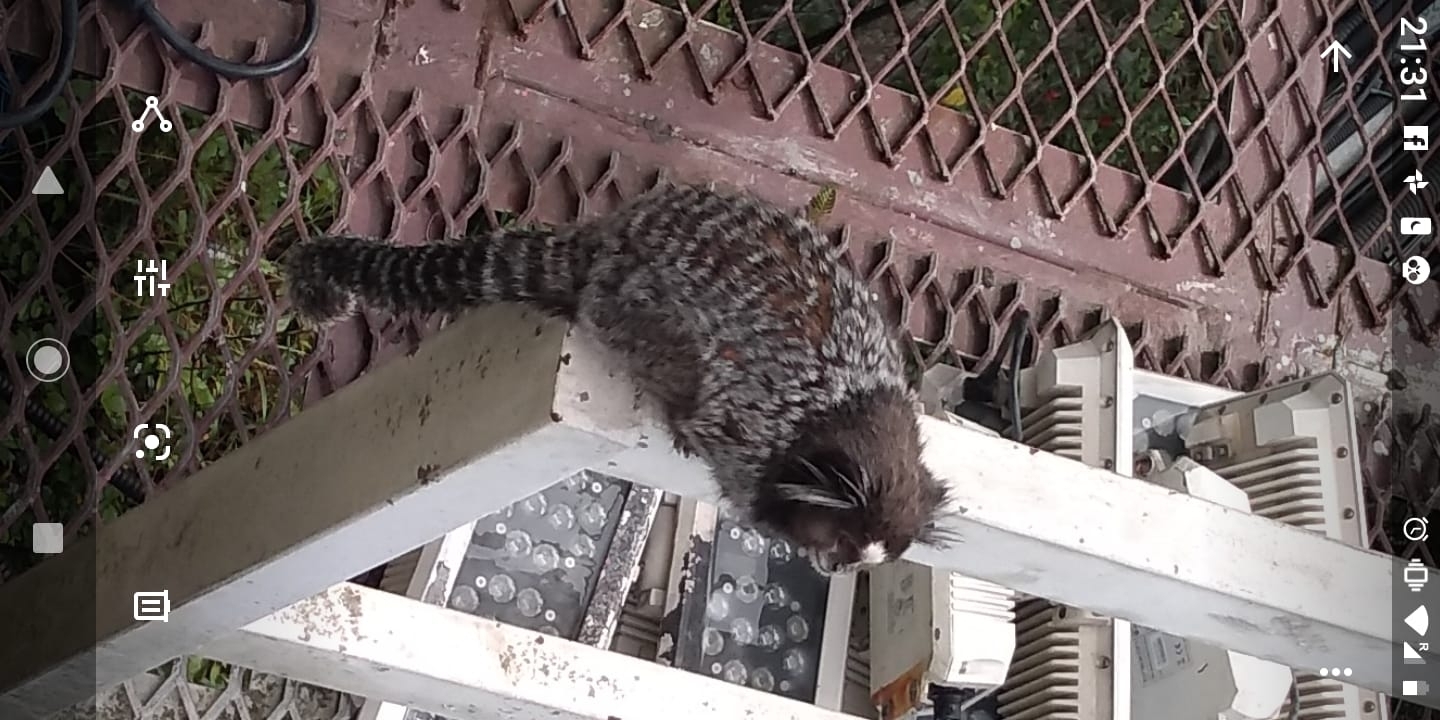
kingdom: Animalia
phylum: Chordata
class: Mammalia
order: Primates
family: Callitrichidae
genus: Callithrix
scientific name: Callithrix penicillata
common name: Black-tufted marmoset
